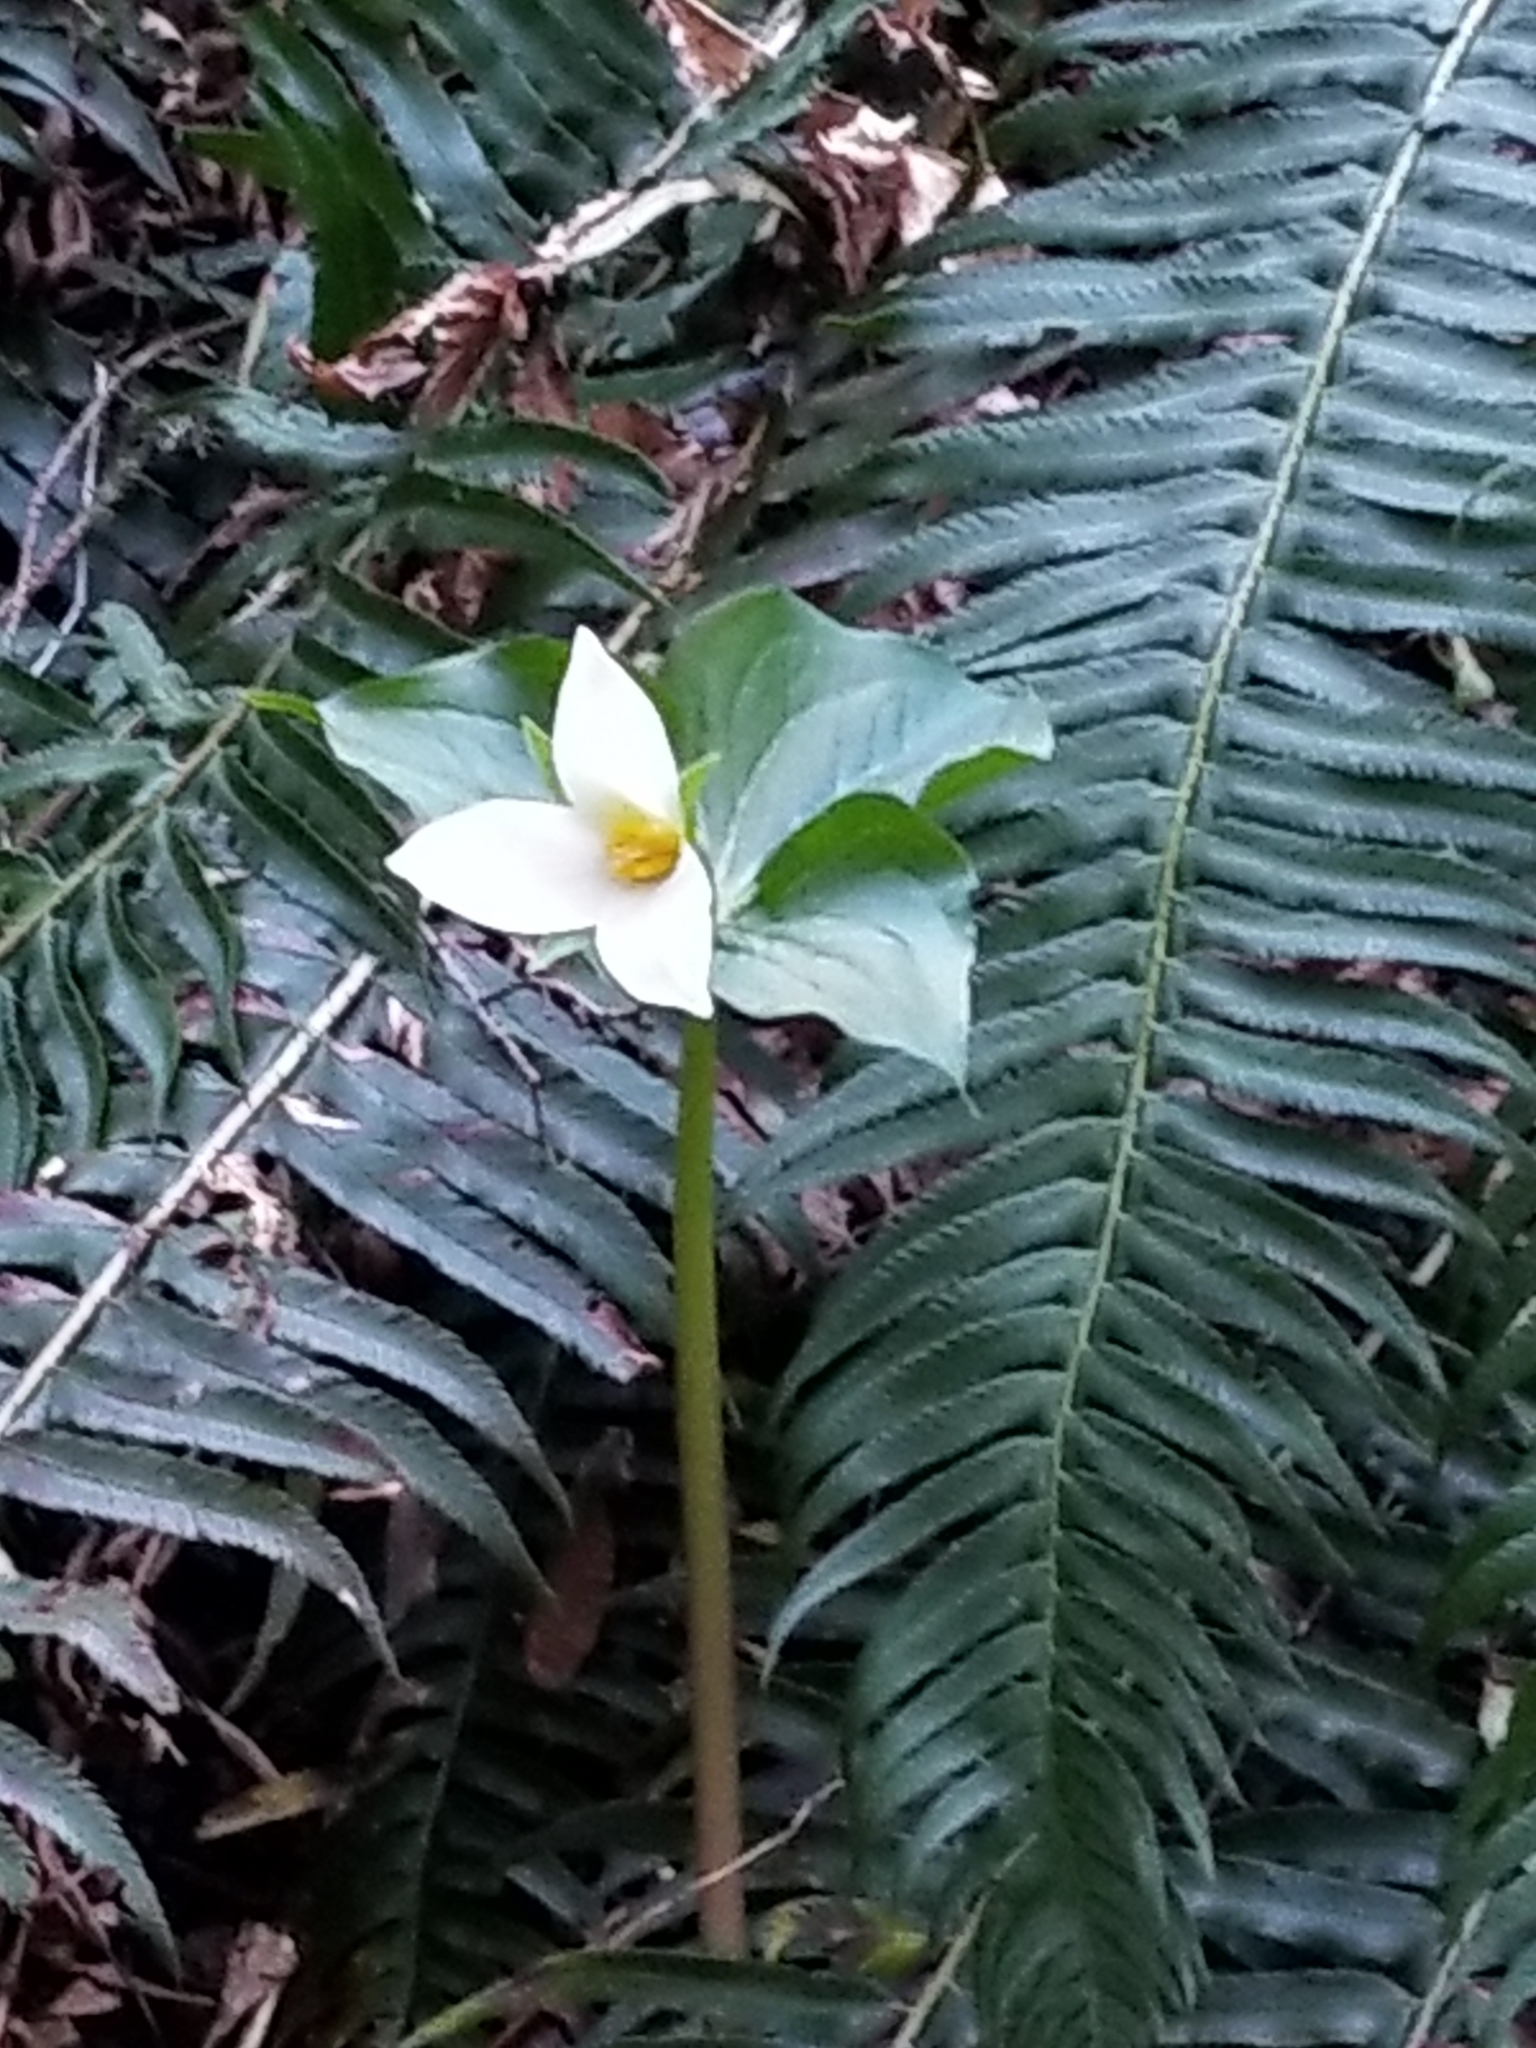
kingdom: Plantae
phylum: Tracheophyta
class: Liliopsida
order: Liliales
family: Melanthiaceae
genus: Trillium
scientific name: Trillium ovatum
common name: Pacific trillium
